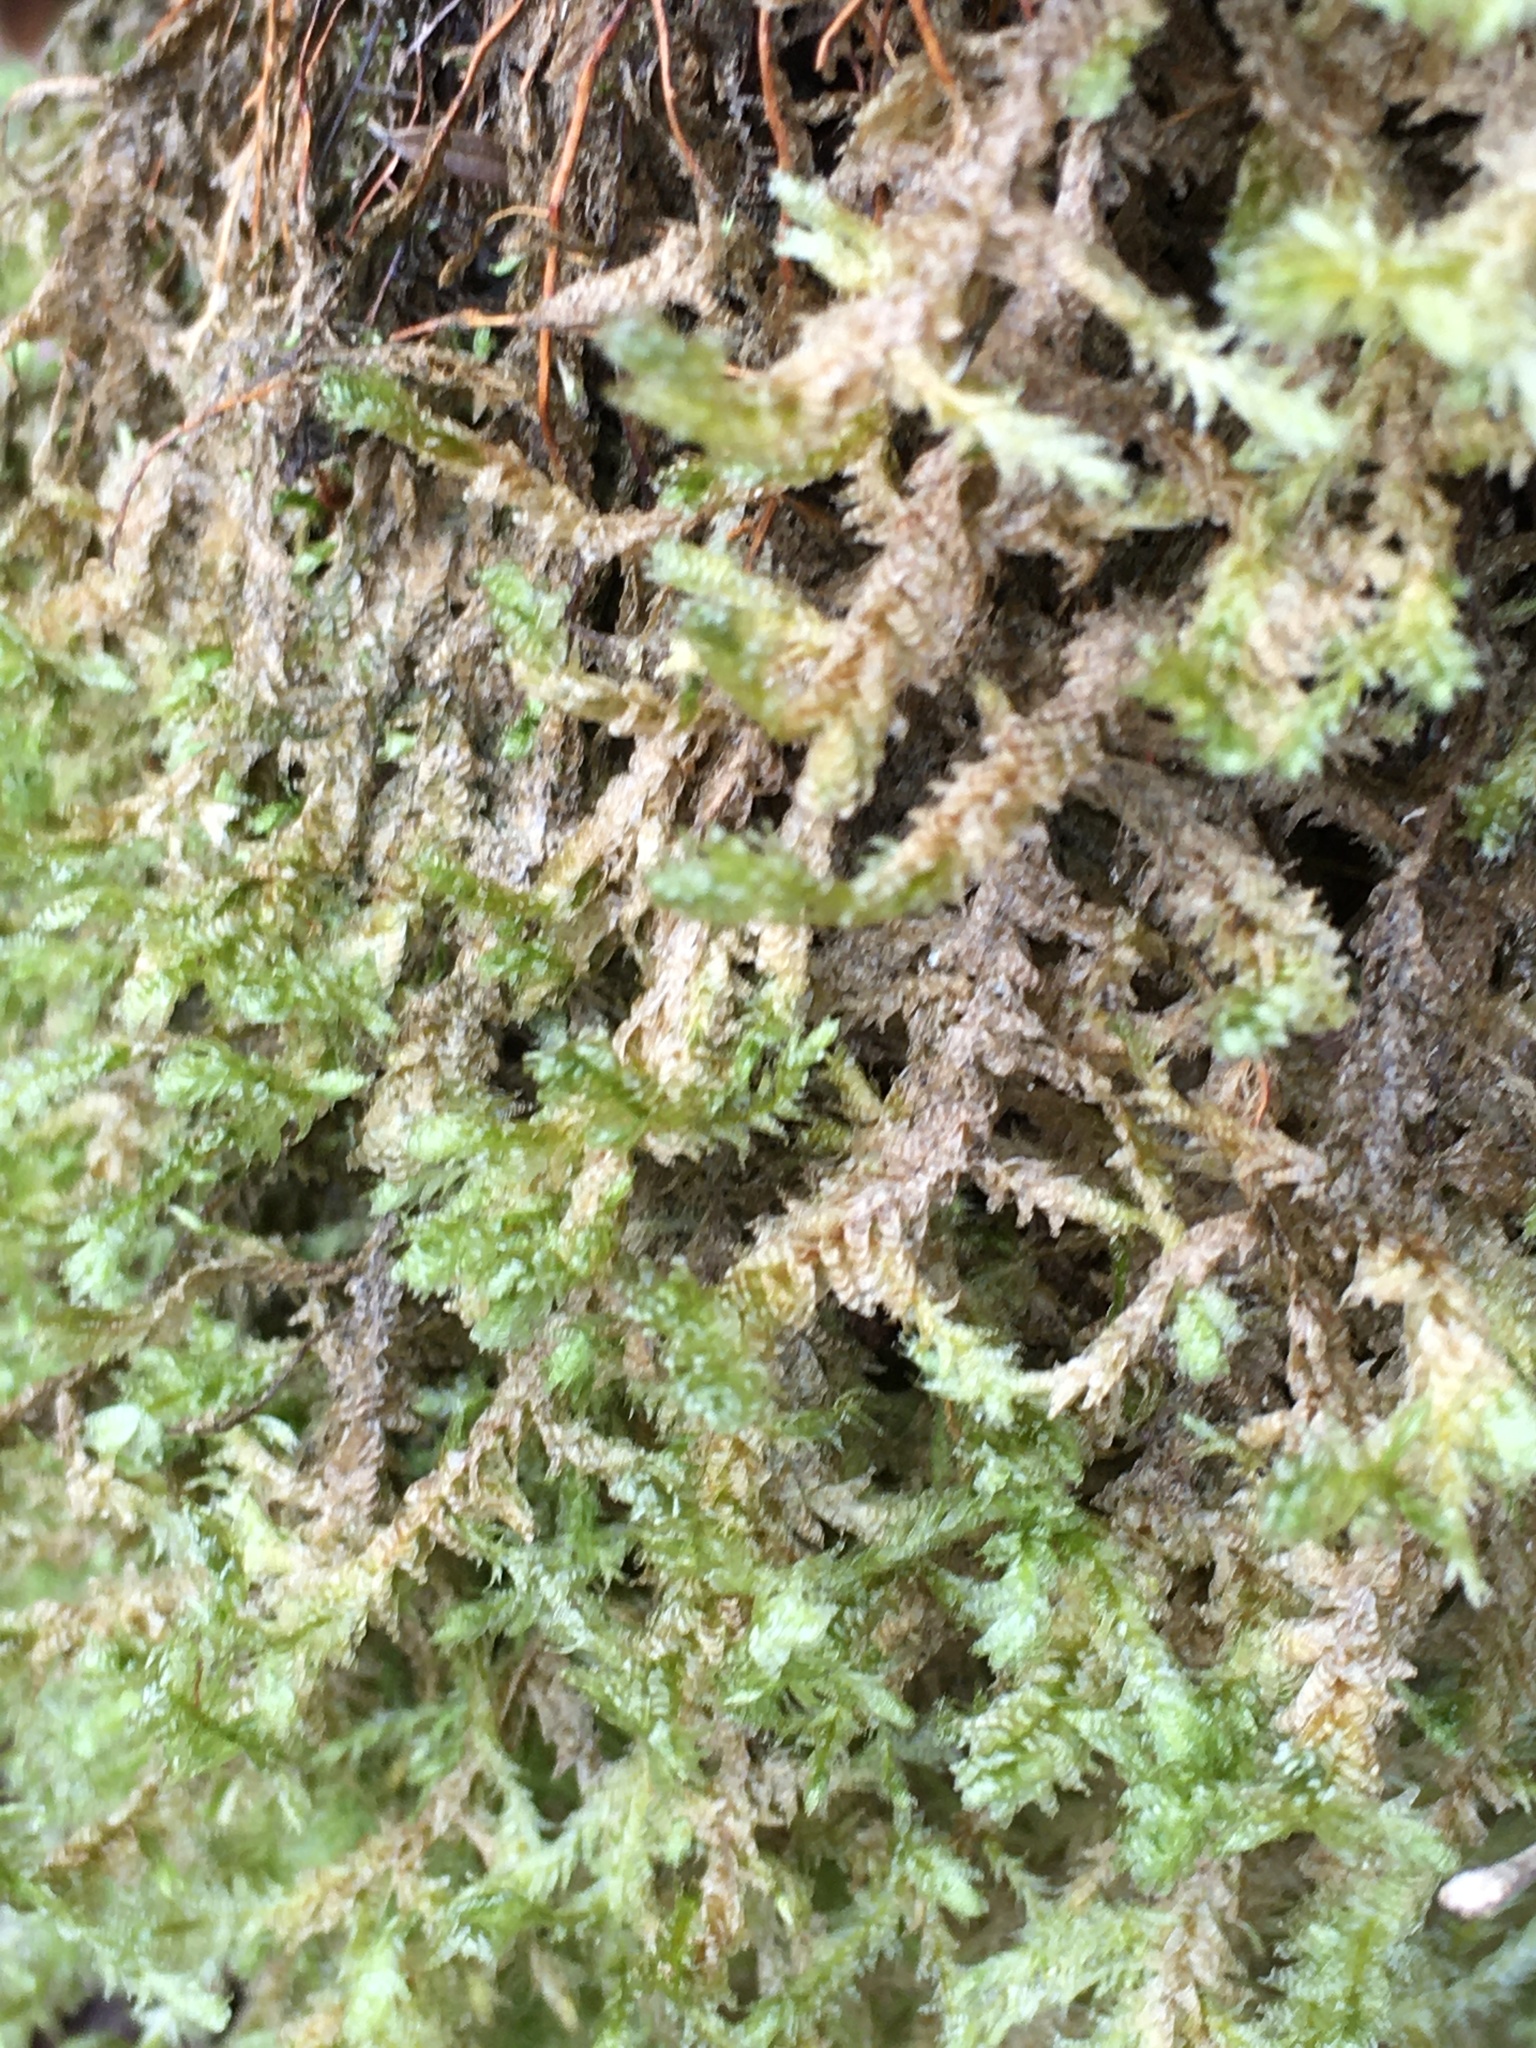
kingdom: Plantae
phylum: Bryophyta
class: Bryopsida
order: Hypnales
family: Neckeraceae
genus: Neckera
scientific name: Neckera douglasii
